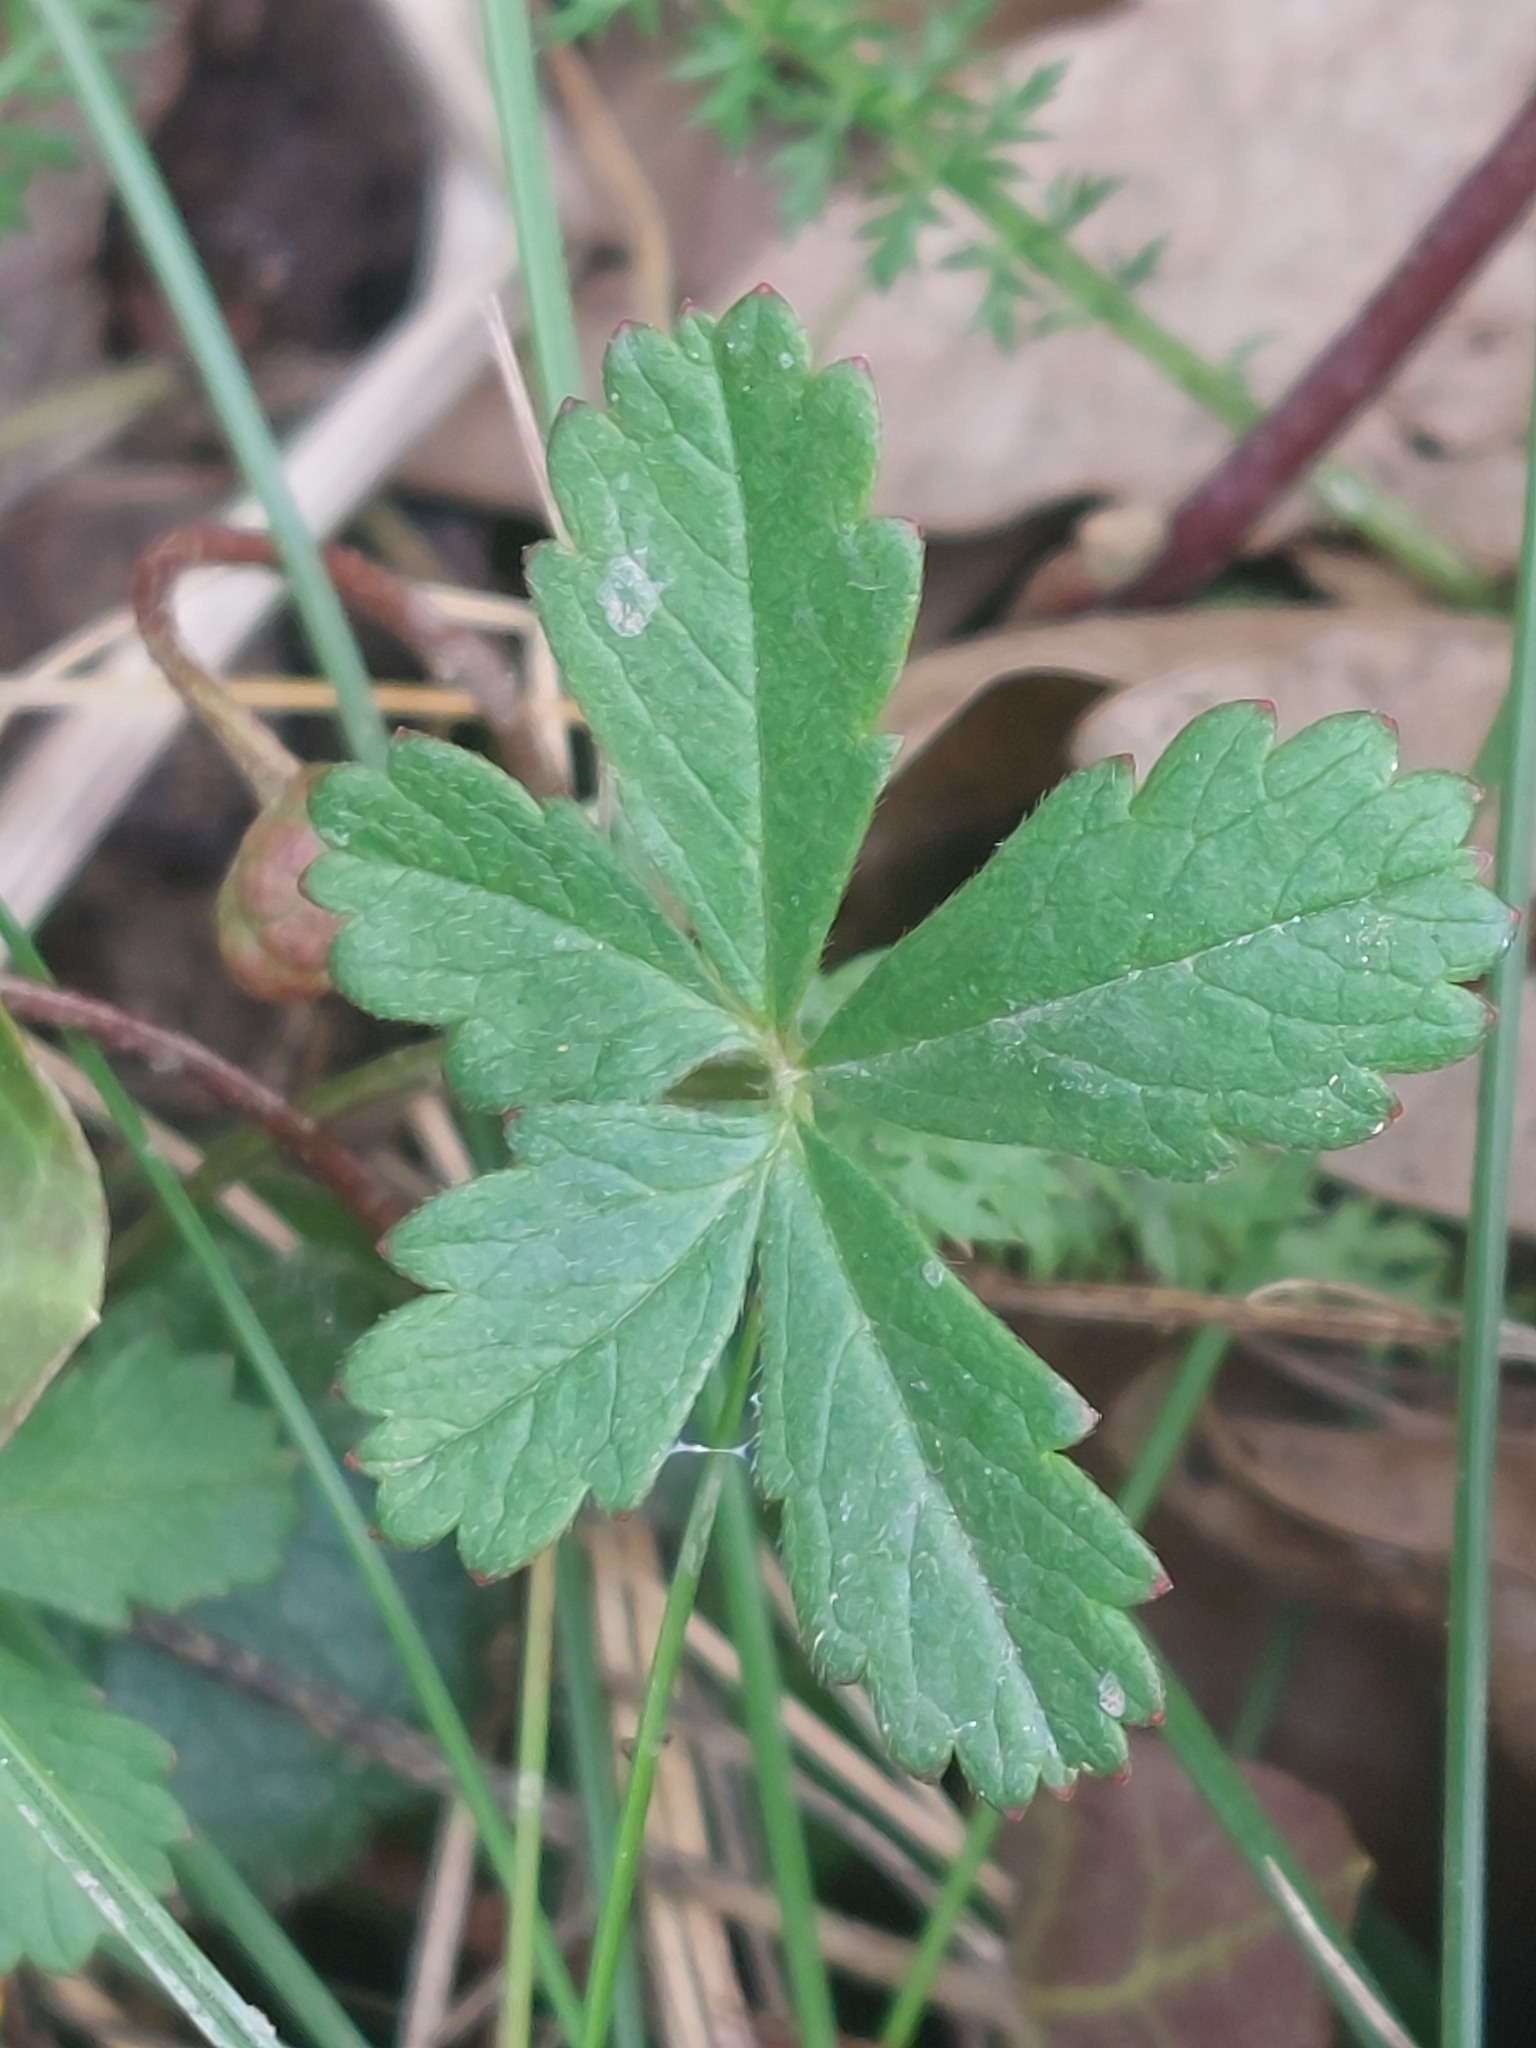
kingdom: Plantae
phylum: Tracheophyta
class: Magnoliopsida
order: Rosales
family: Rosaceae
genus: Potentilla
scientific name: Potentilla reptans
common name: Creeping cinquefoil
